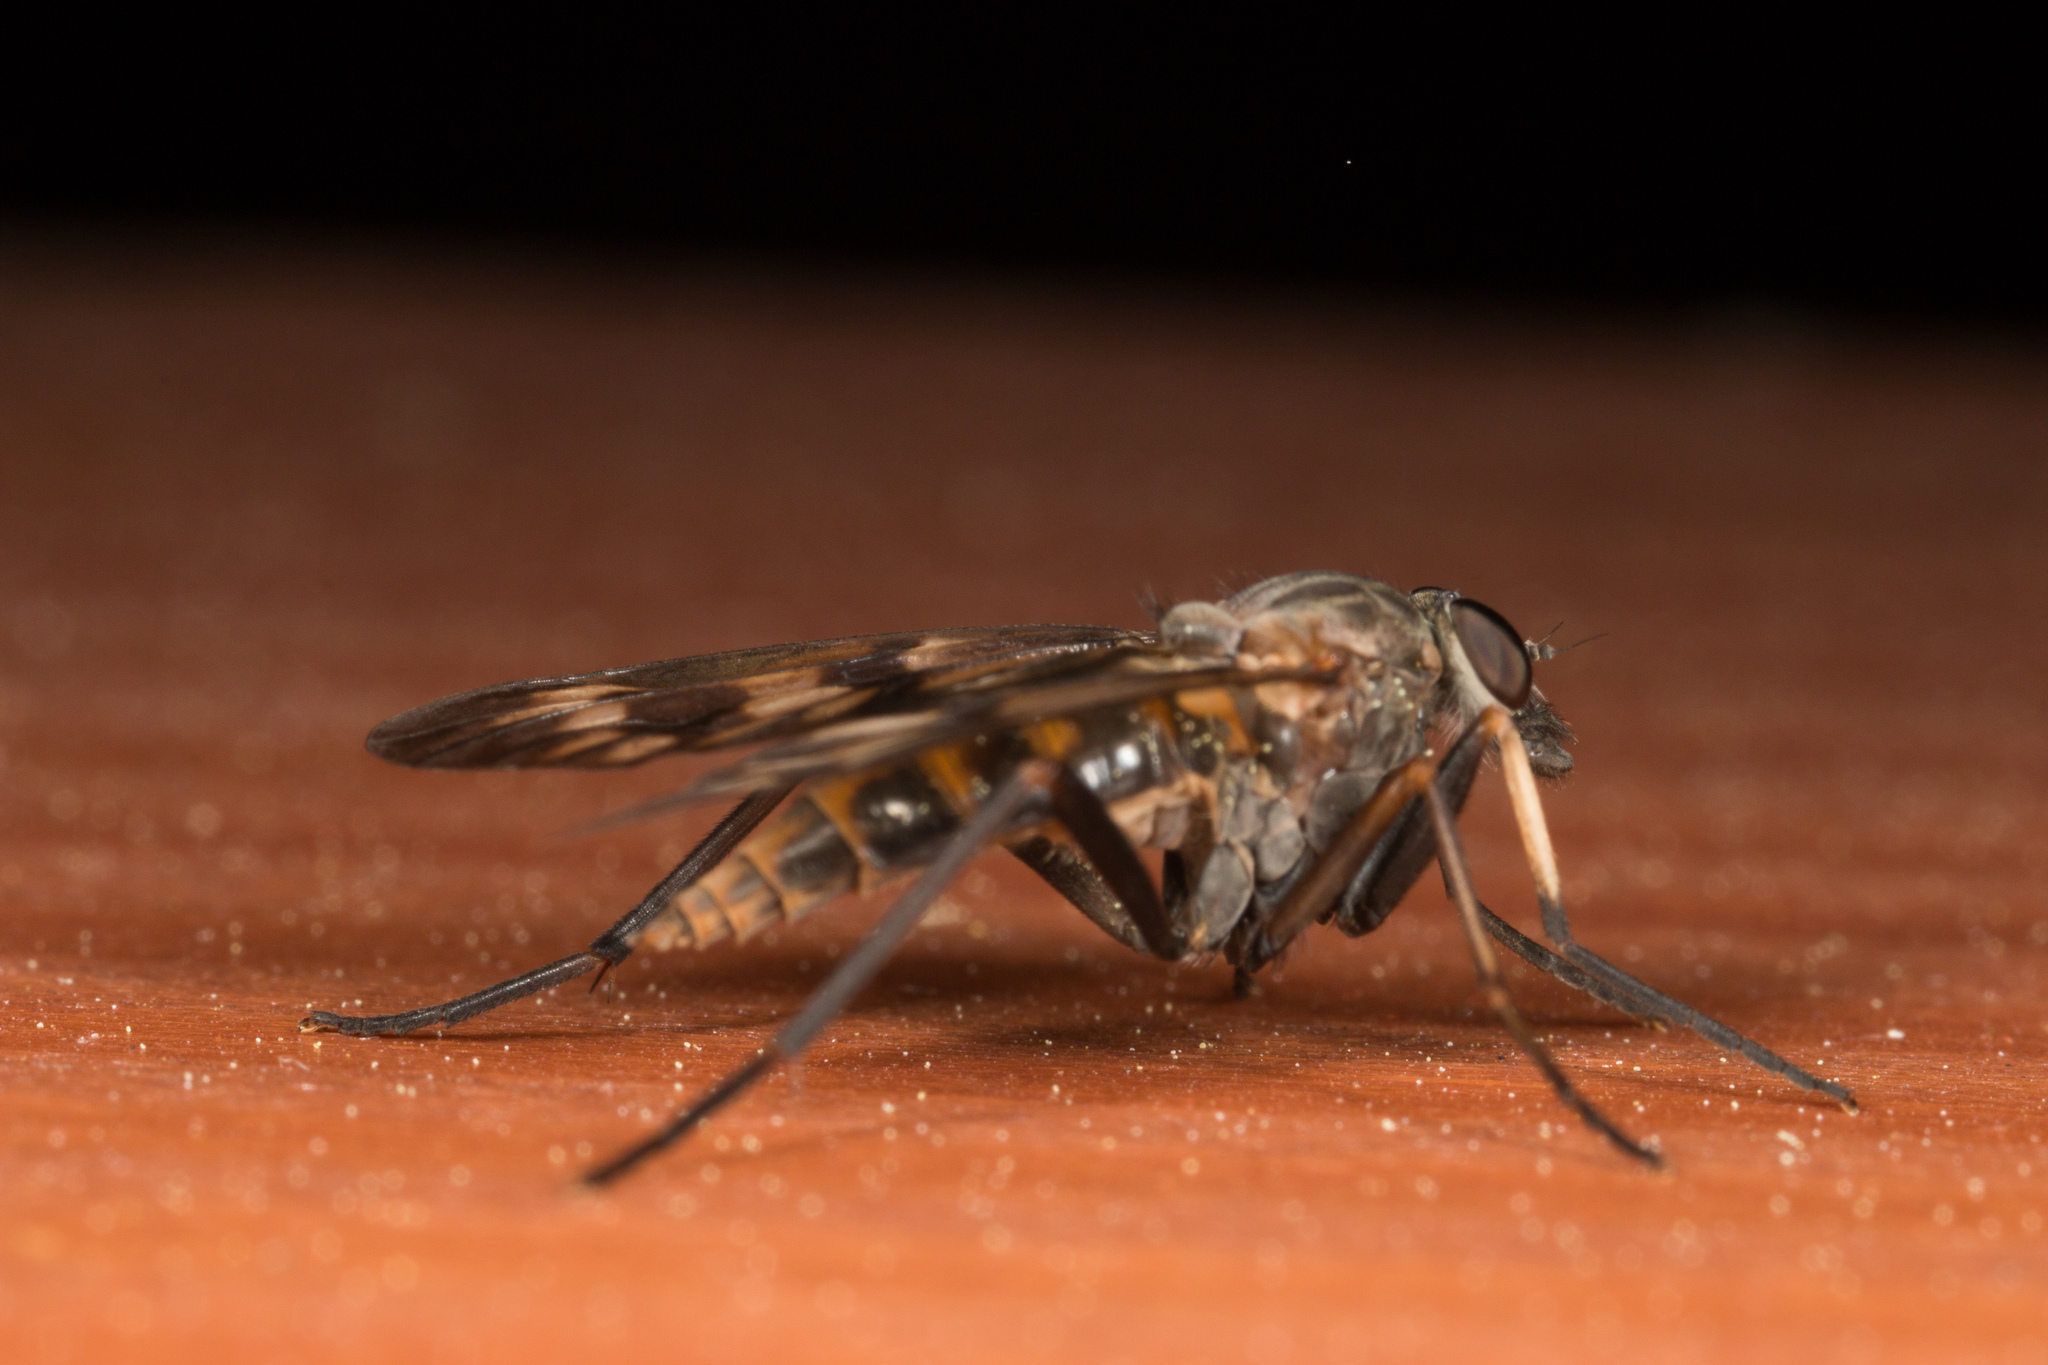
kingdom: Animalia
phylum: Arthropoda
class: Insecta
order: Diptera
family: Rhagionidae
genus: Rhagio
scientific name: Rhagio mystaceus
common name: Common snipe fly
